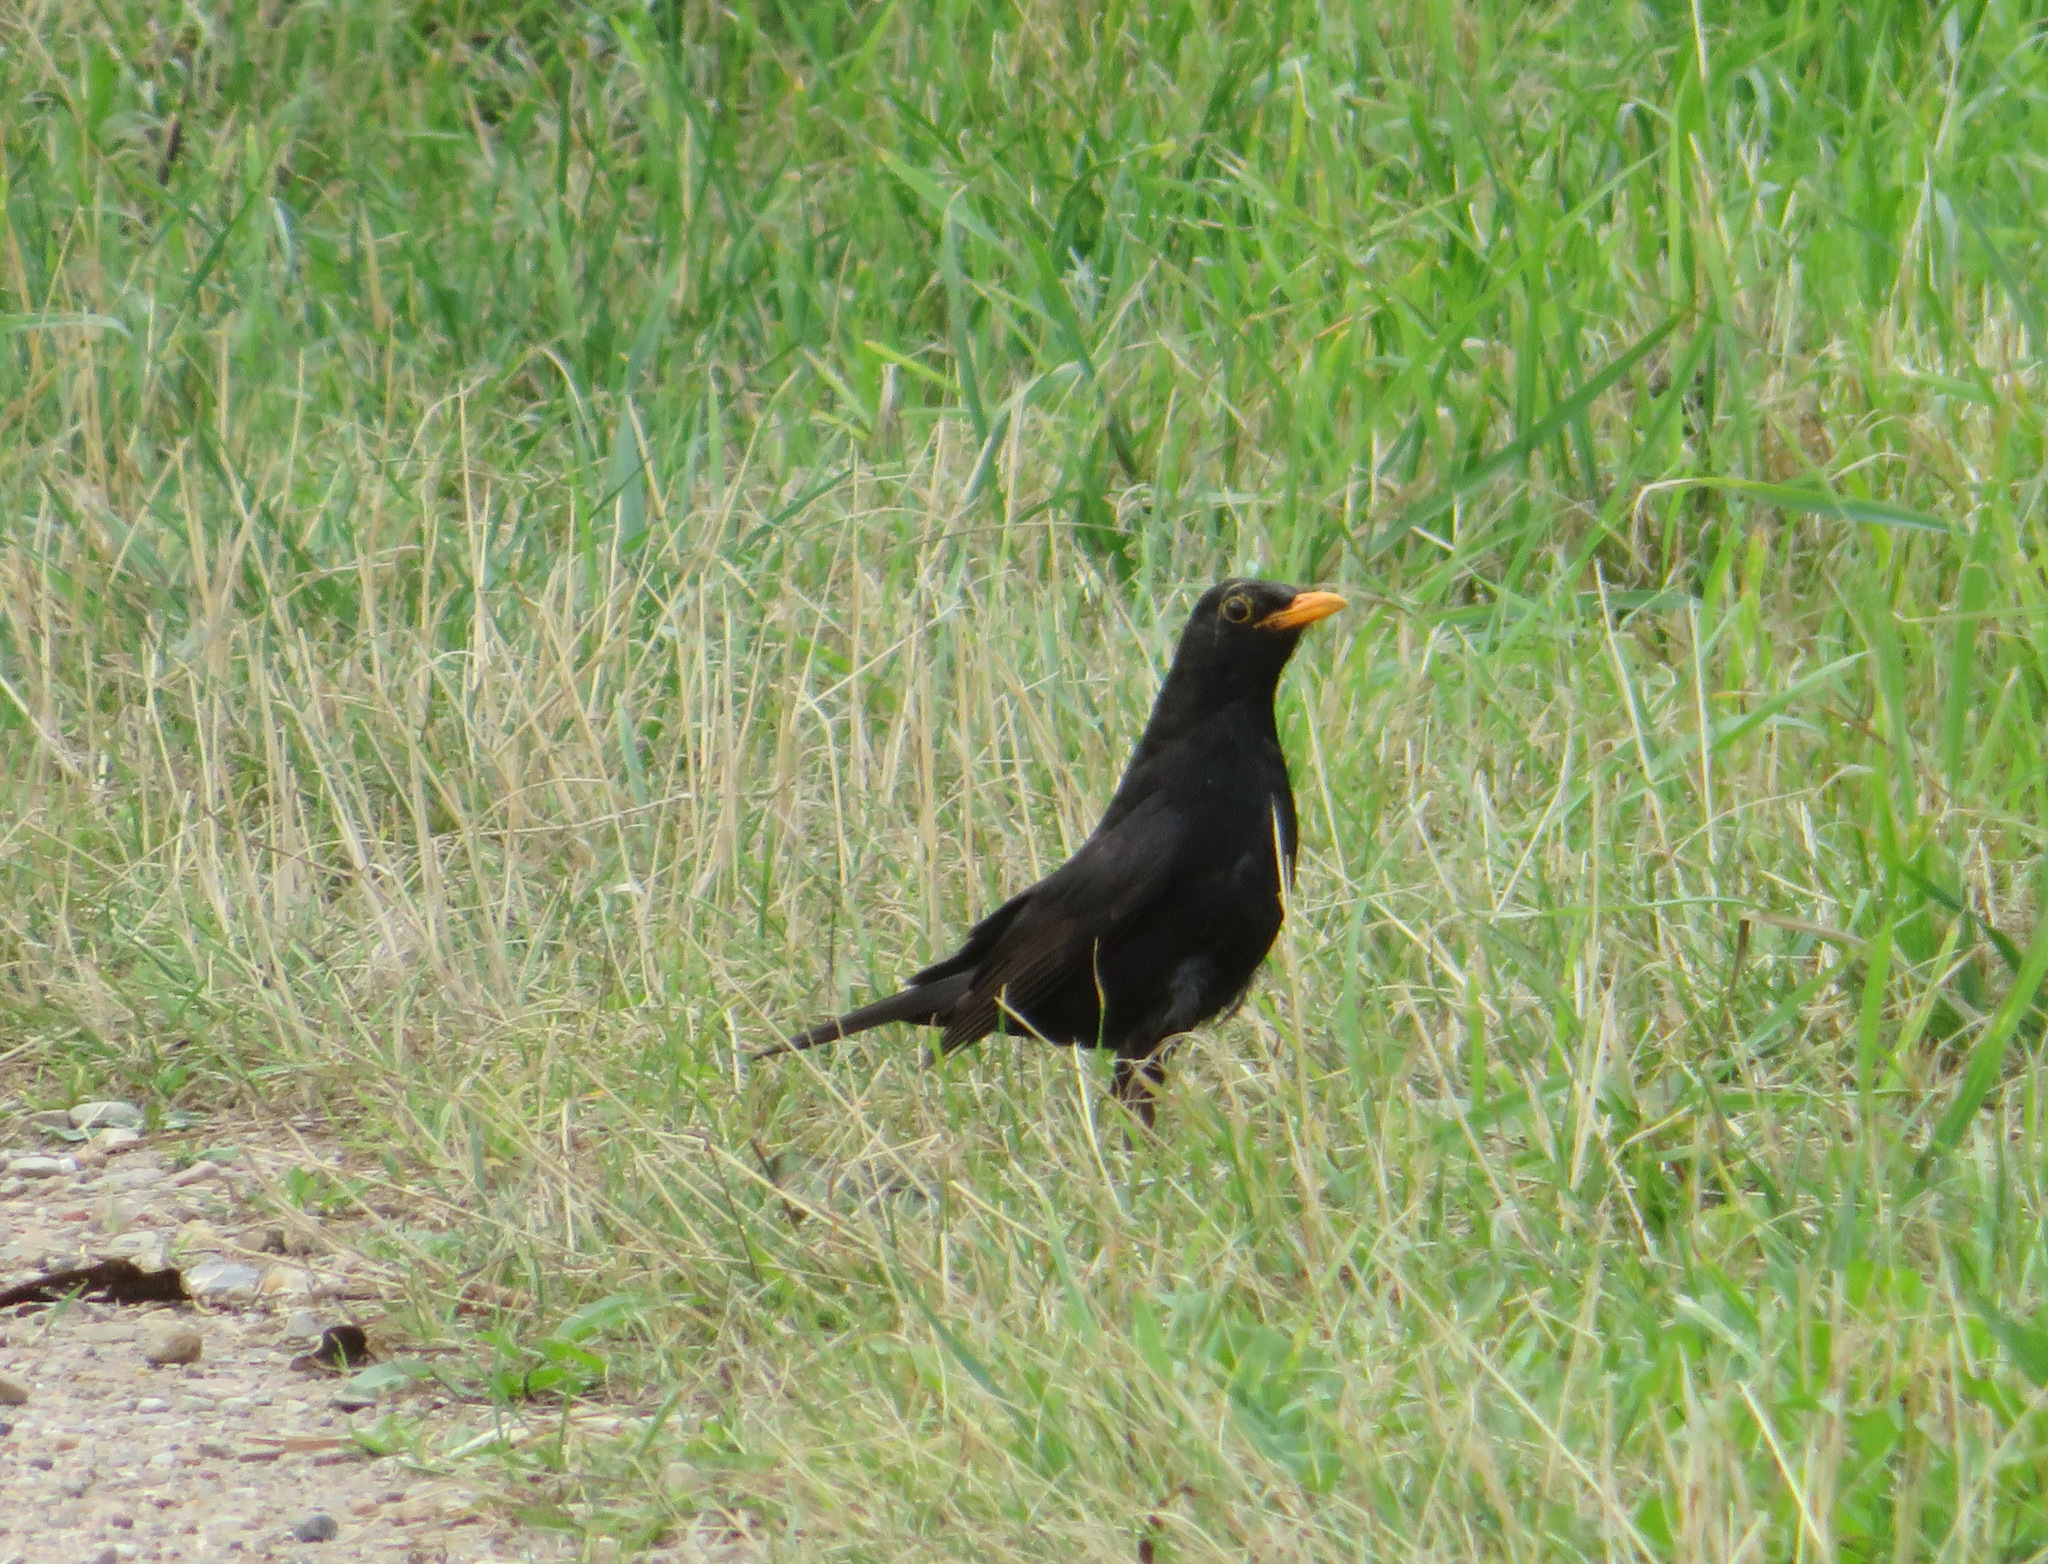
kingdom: Animalia
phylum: Chordata
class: Aves
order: Passeriformes
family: Turdidae
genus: Turdus
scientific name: Turdus merula
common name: Common blackbird
